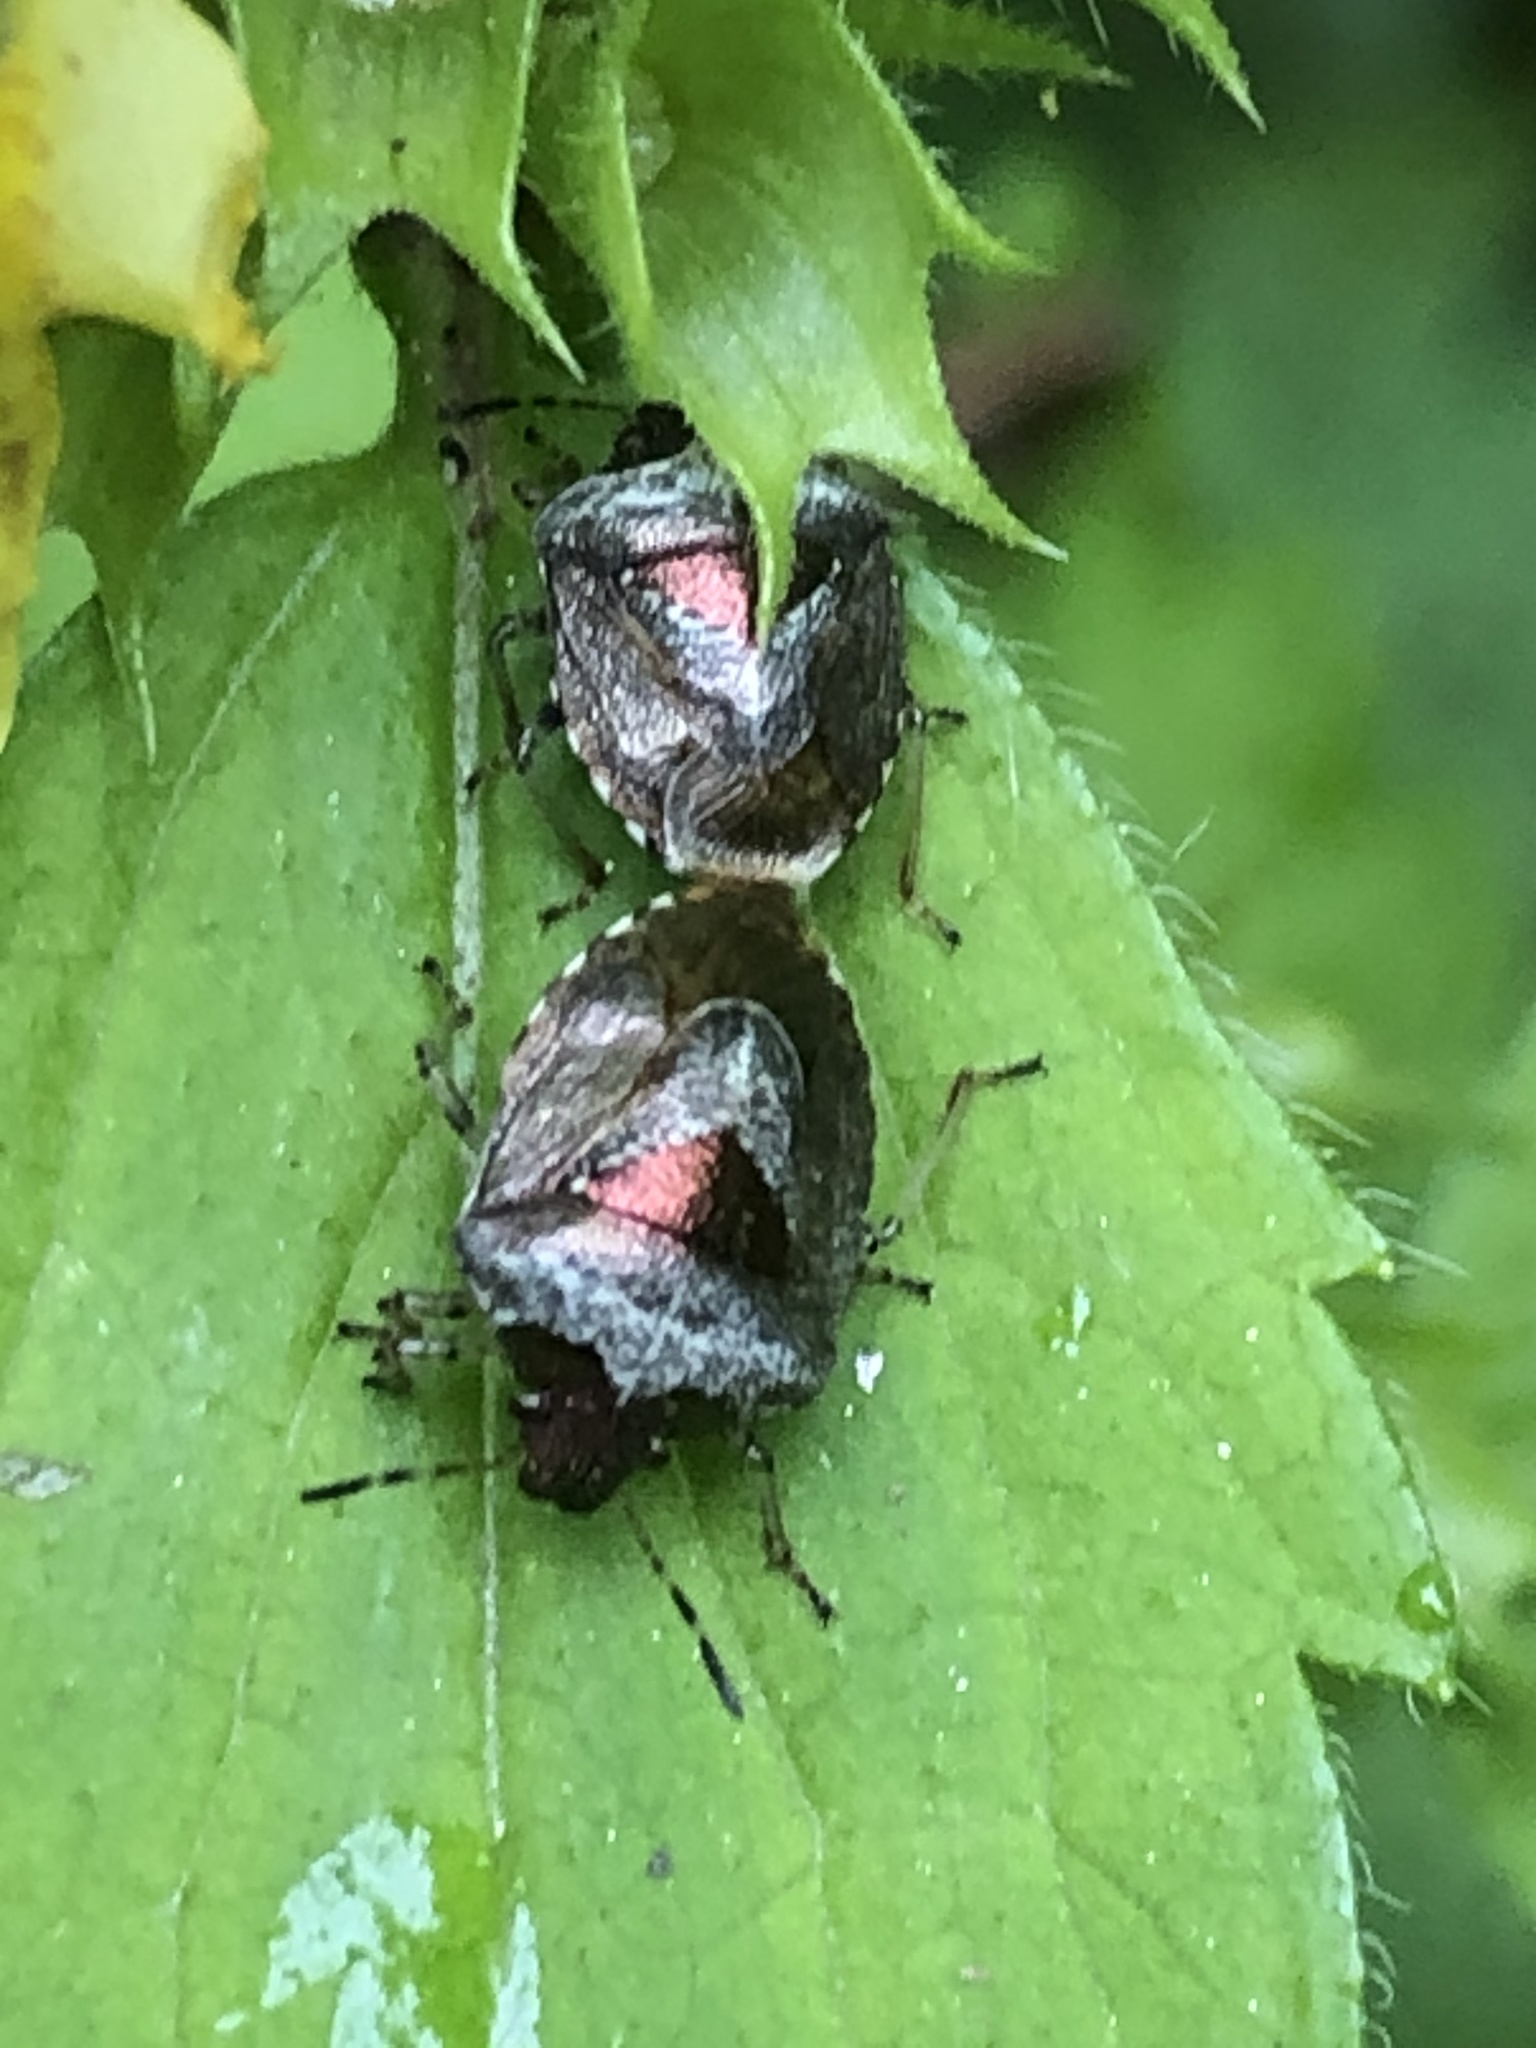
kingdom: Animalia
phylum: Arthropoda
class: Insecta
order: Hemiptera
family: Pentatomidae
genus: Eysarcoris
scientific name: Eysarcoris venustissimus
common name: Woundwort shieldbug
